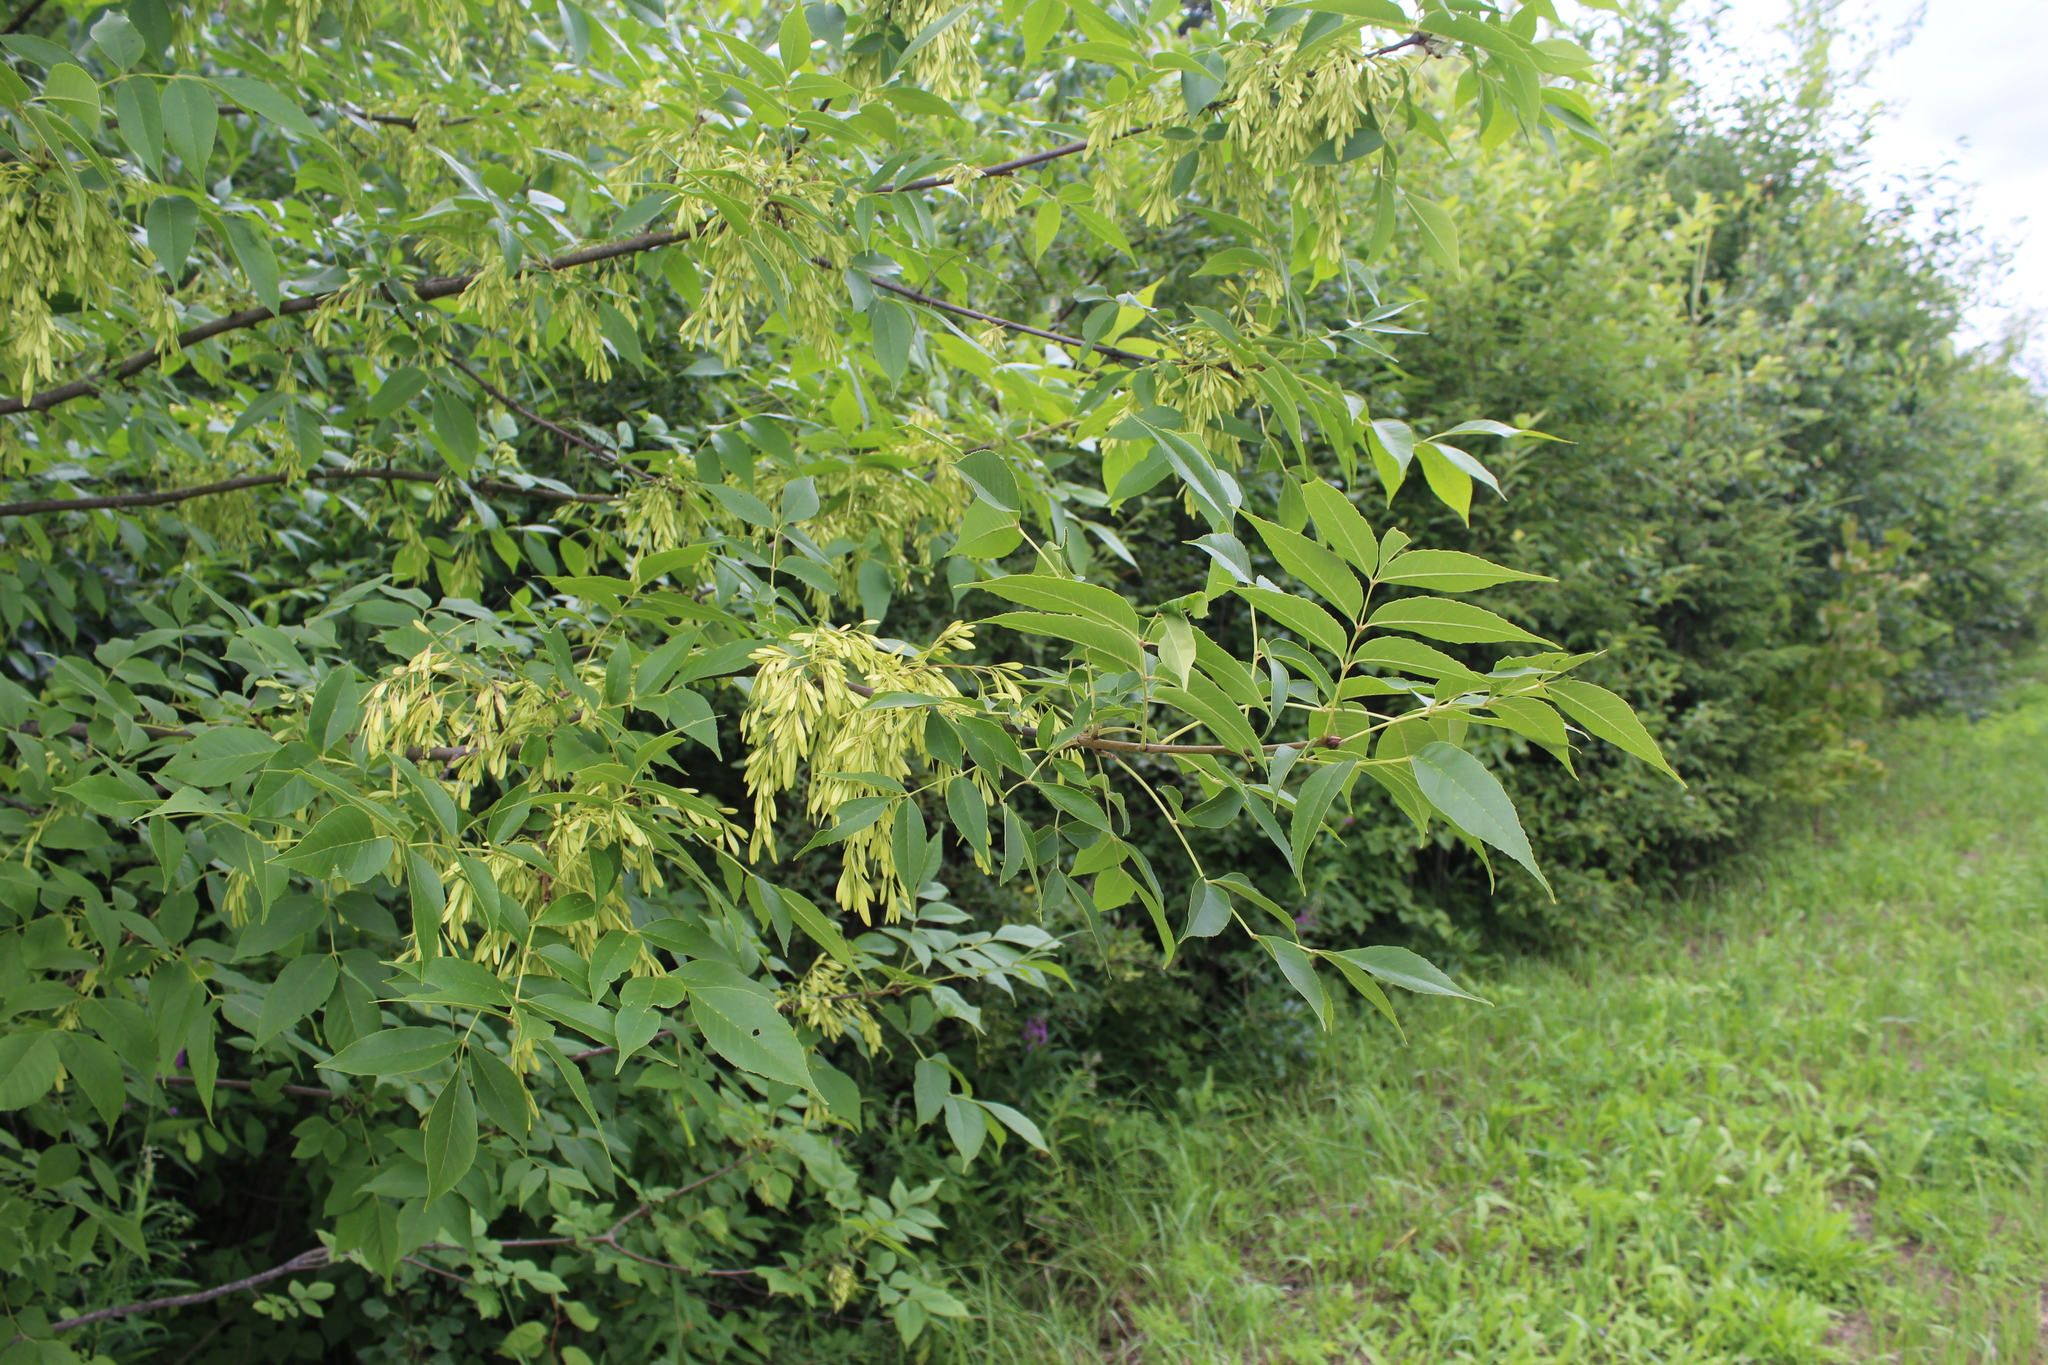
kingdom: Plantae
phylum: Tracheophyta
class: Magnoliopsida
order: Lamiales
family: Oleaceae
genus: Fraxinus
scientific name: Fraxinus pennsylvanica
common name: Green ash
